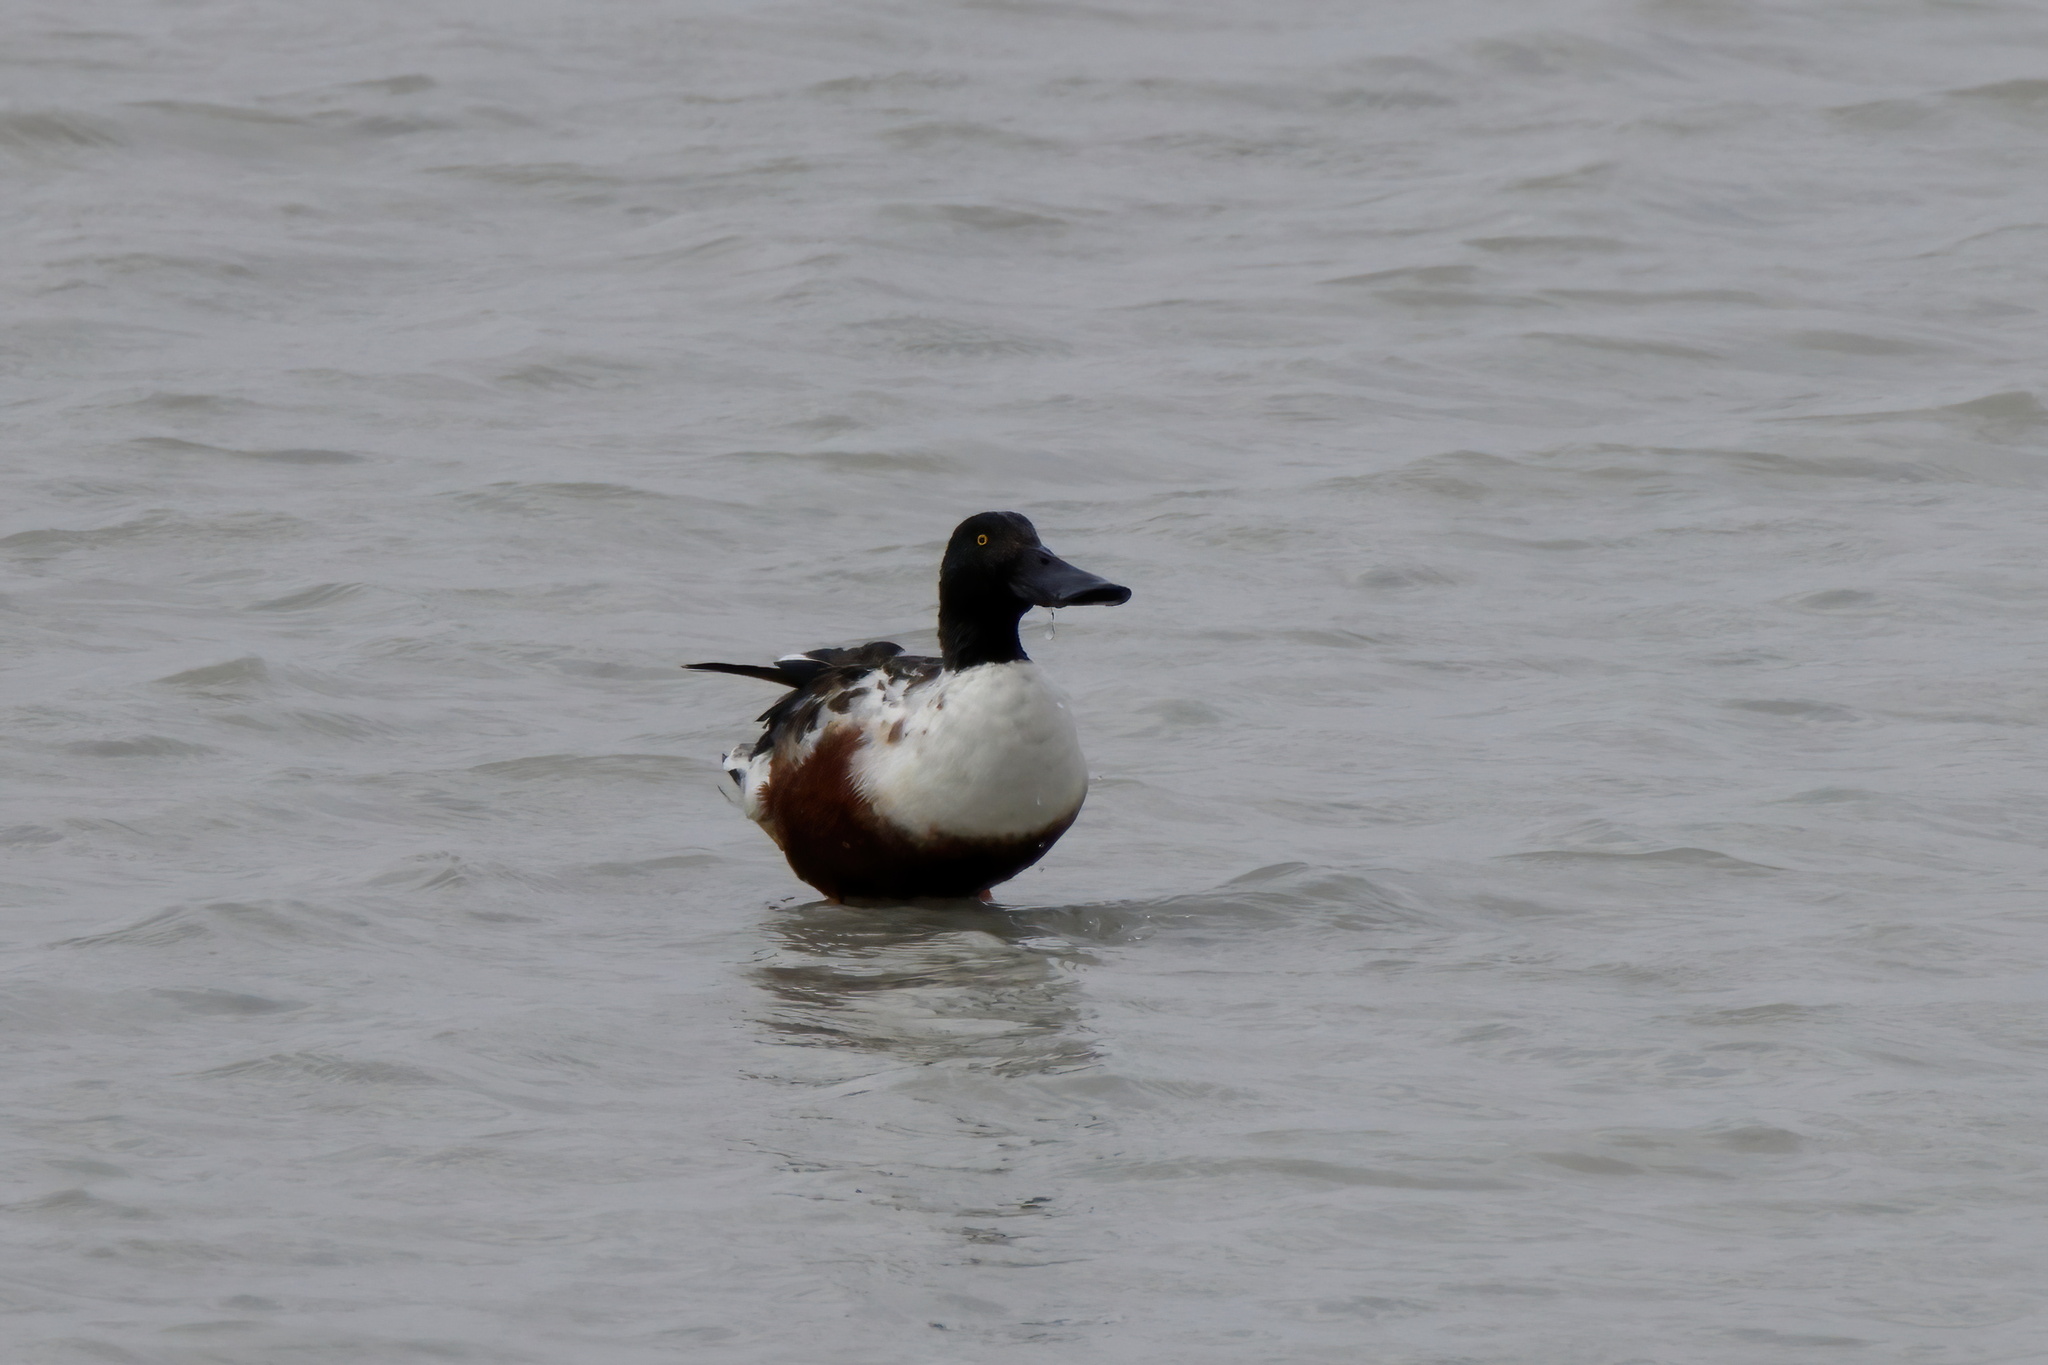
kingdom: Animalia
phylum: Chordata
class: Aves
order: Anseriformes
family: Anatidae
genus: Spatula
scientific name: Spatula clypeata
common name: Northern shoveler
